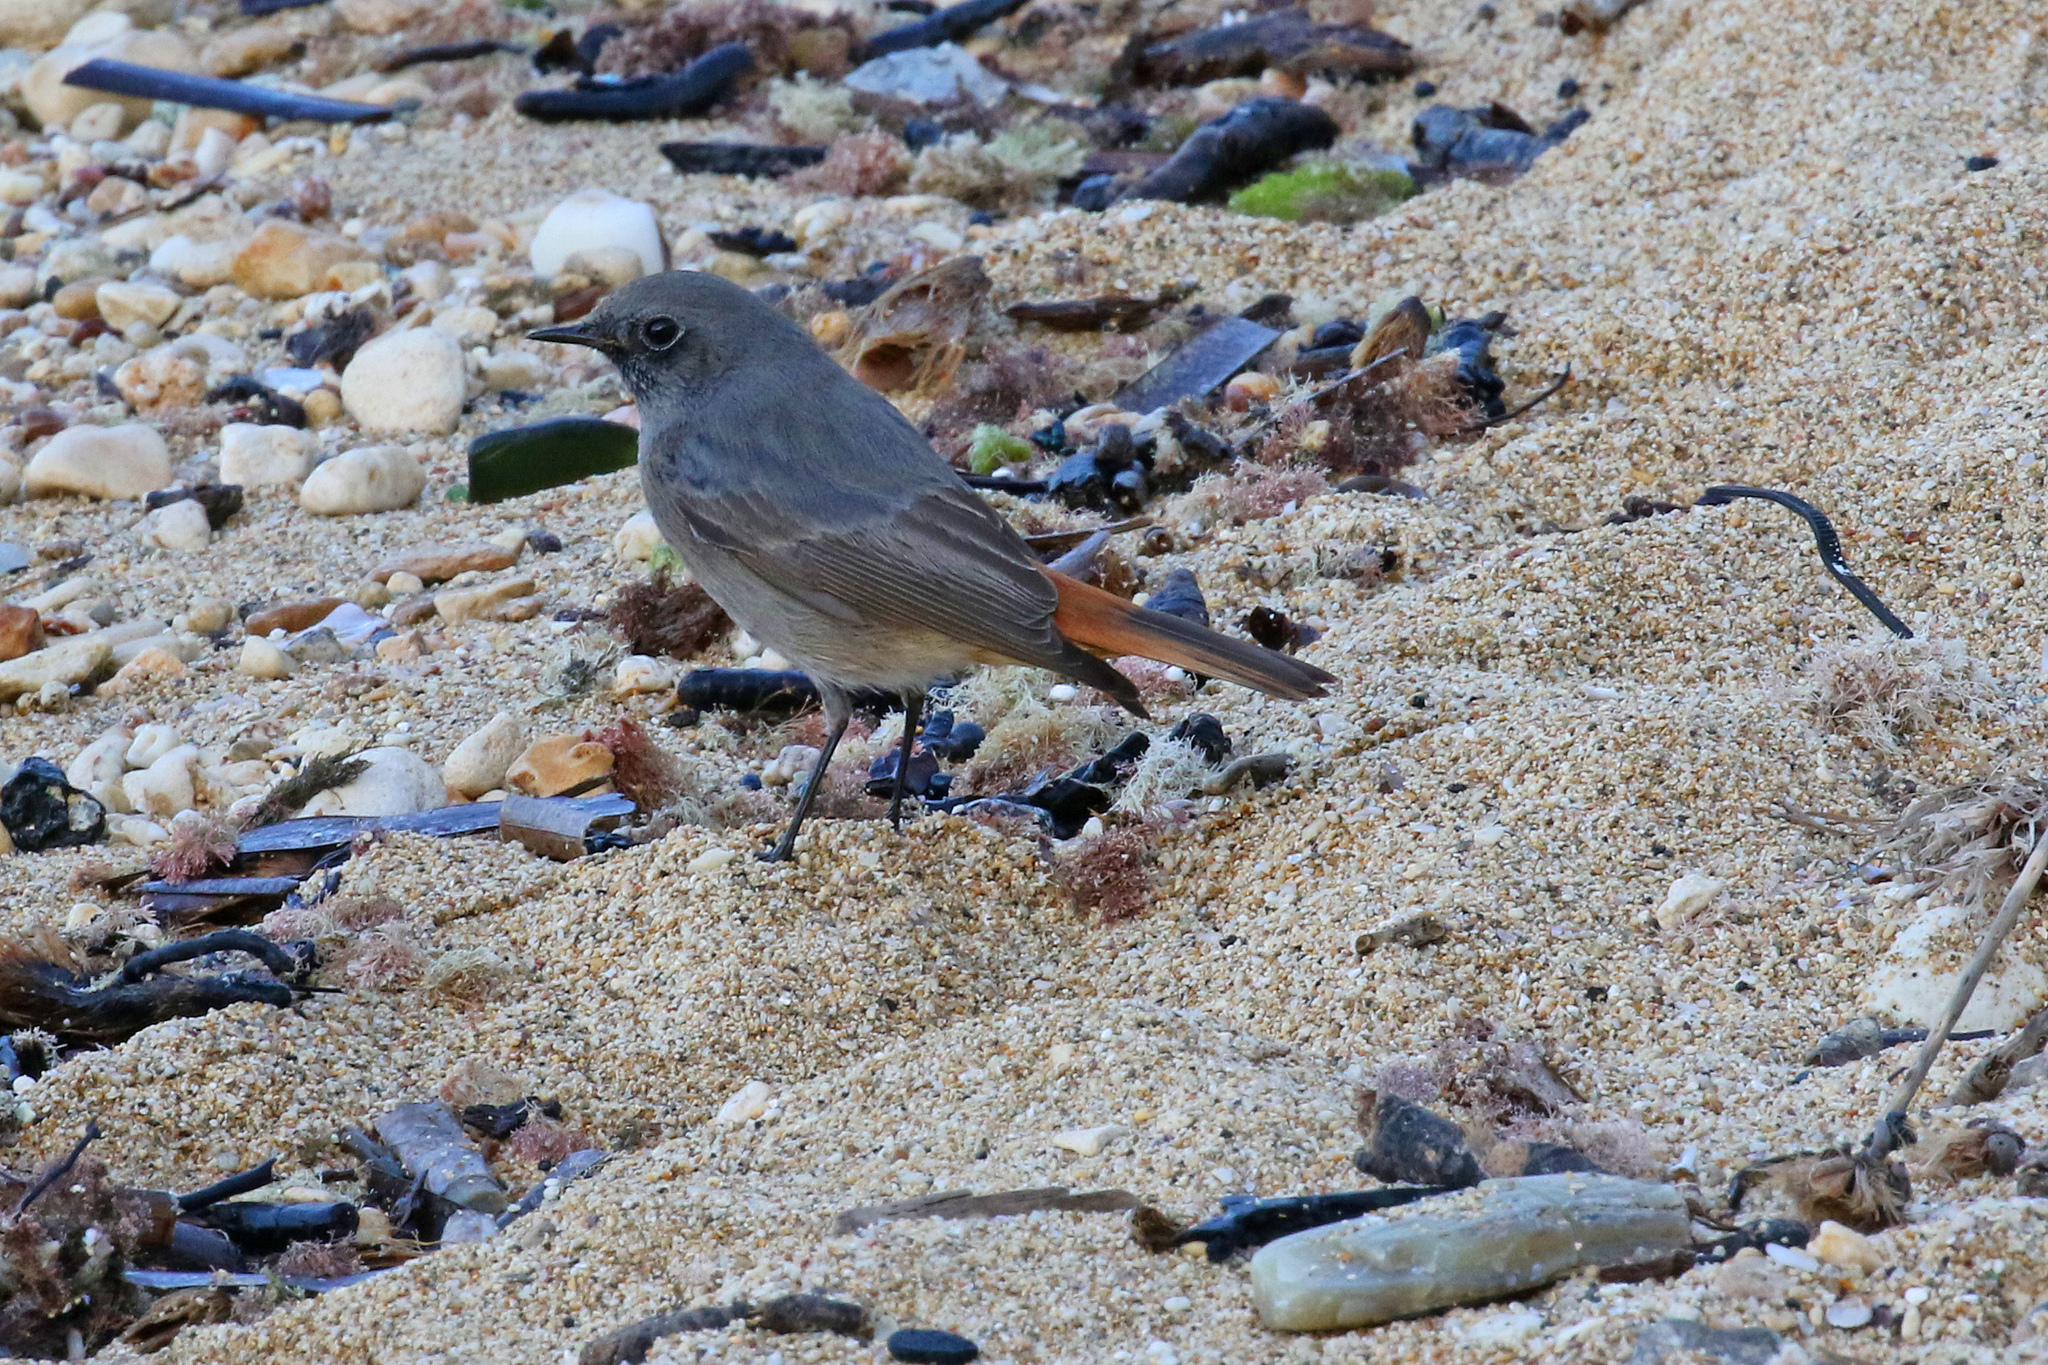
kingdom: Animalia
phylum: Chordata
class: Aves
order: Passeriformes
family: Muscicapidae
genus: Phoenicurus
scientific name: Phoenicurus ochruros
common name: Black redstart
